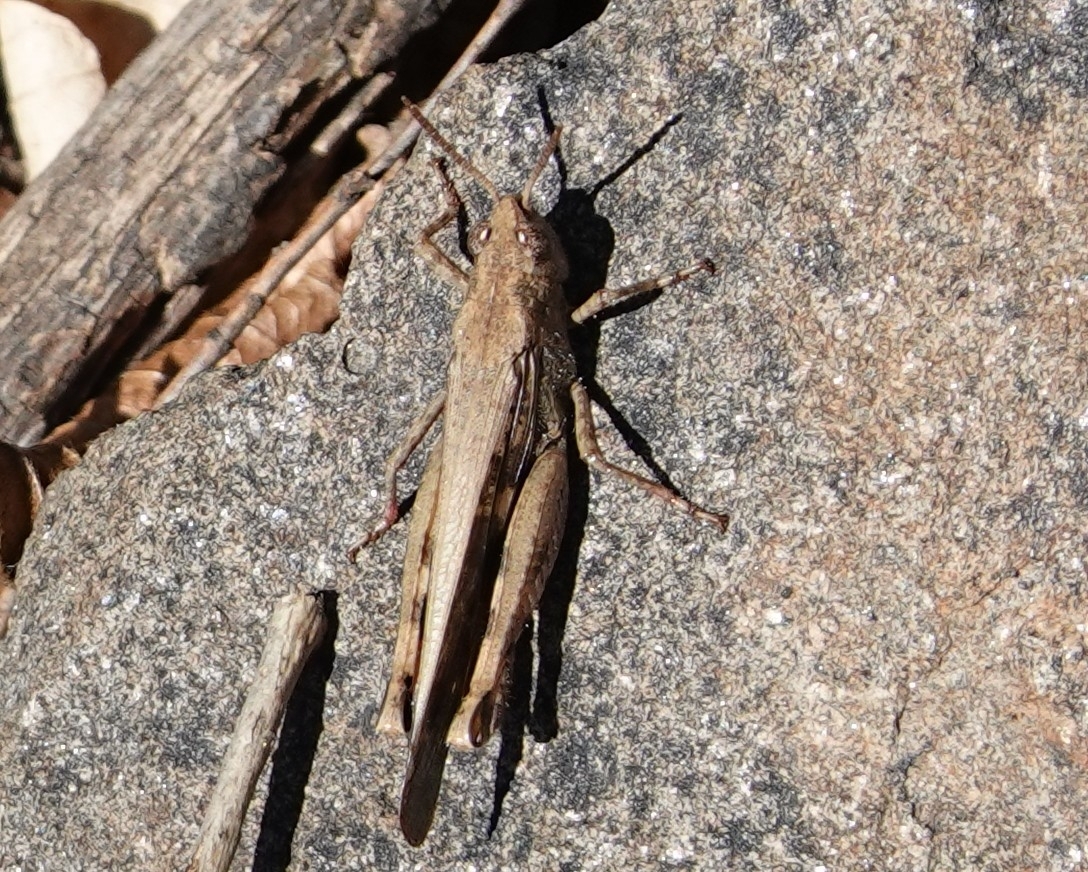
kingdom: Animalia
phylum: Arthropoda
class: Insecta
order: Orthoptera
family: Acrididae
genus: Aiolopus
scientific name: Aiolopus strepens
